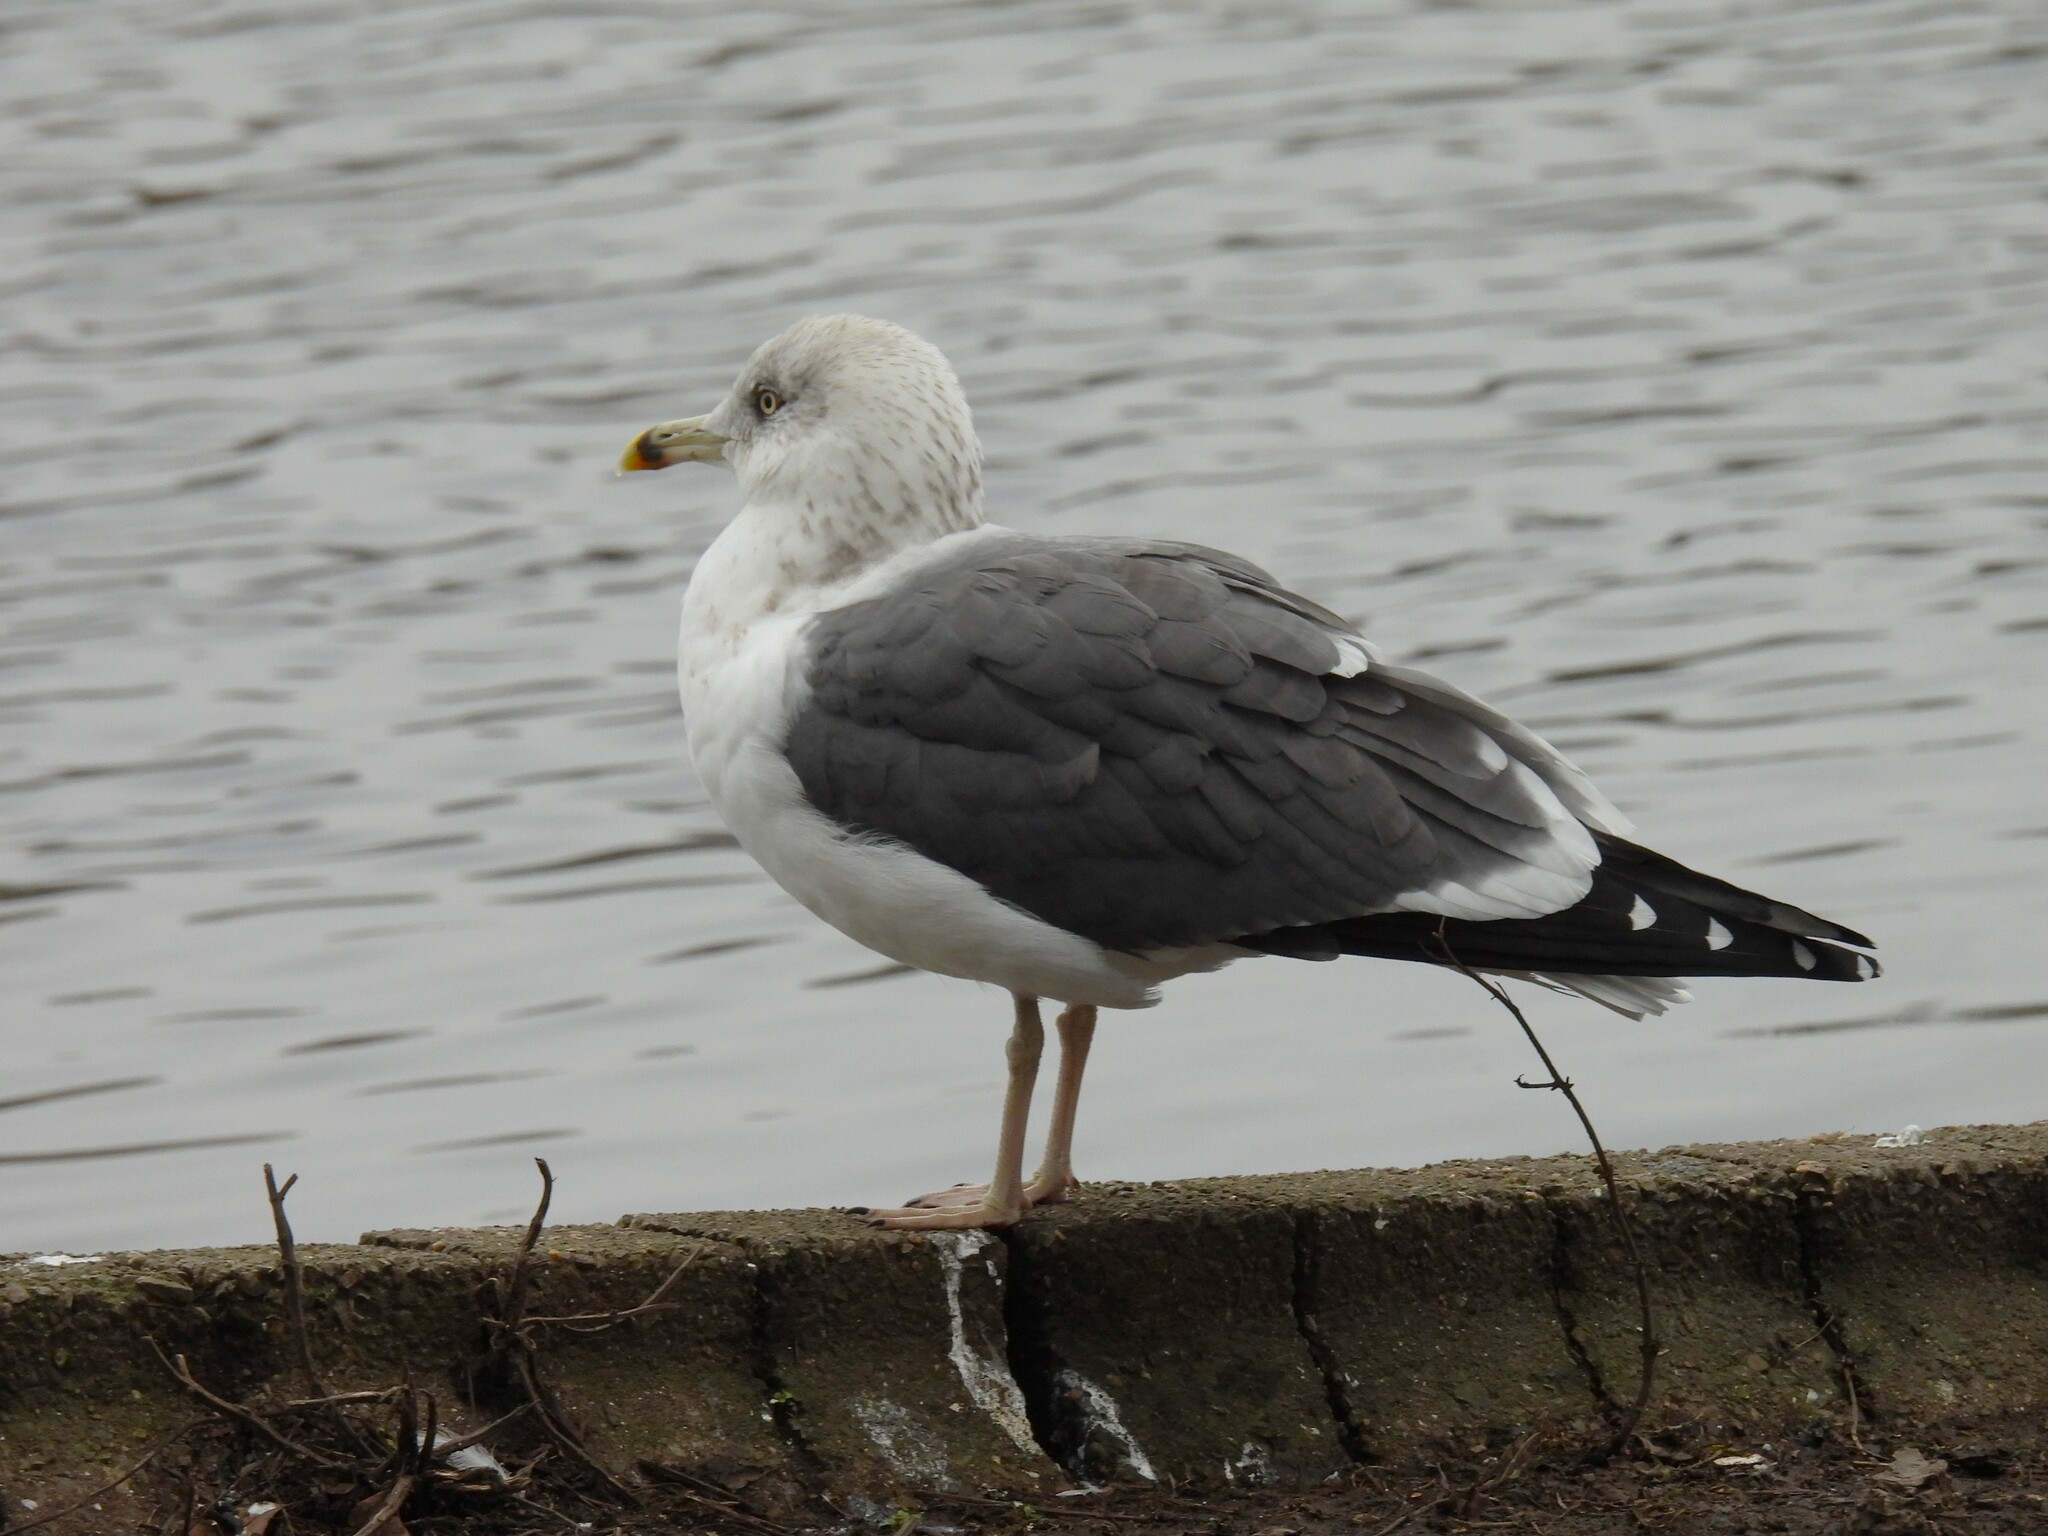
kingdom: Animalia
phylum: Chordata
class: Aves
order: Charadriiformes
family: Laridae
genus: Larus
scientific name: Larus fuscus
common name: Lesser black-backed gull
